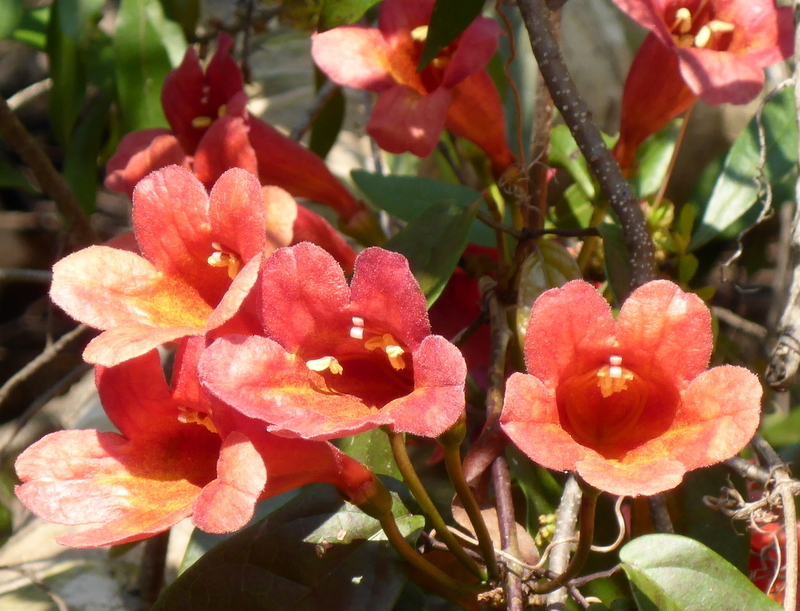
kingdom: Plantae
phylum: Tracheophyta
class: Magnoliopsida
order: Lamiales
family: Bignoniaceae
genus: Bignonia
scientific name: Bignonia capreolata
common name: Crossvine
